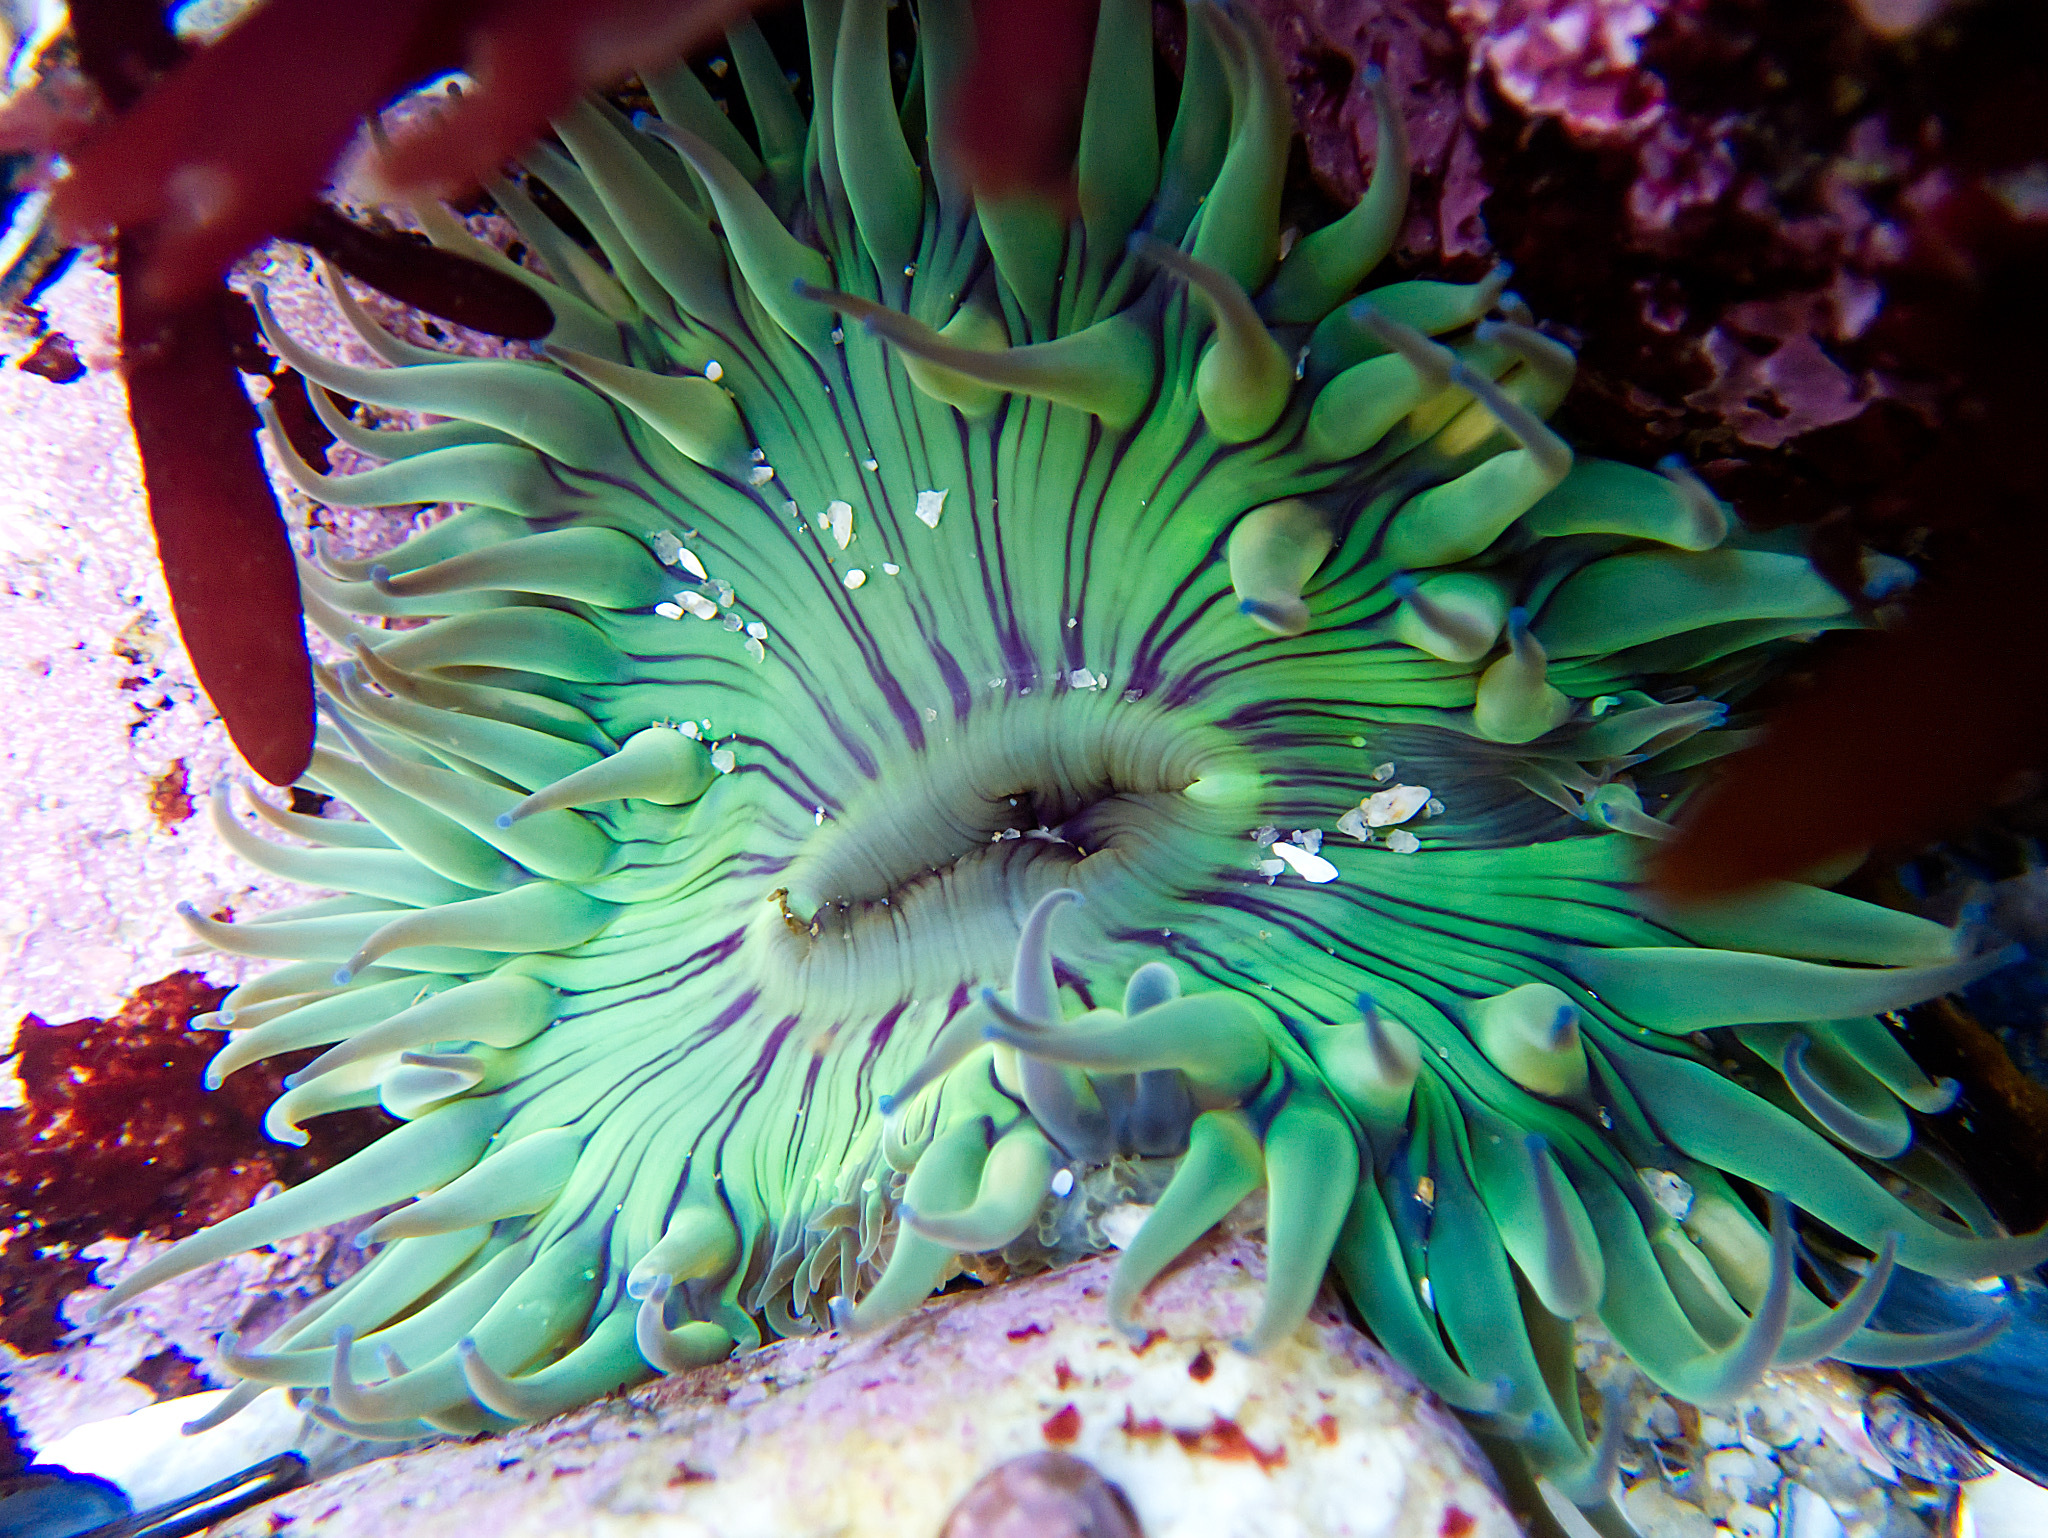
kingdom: Animalia
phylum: Cnidaria
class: Anthozoa
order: Actiniaria
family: Actiniidae
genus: Anthopleura
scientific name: Anthopleura sola
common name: Sun anemone
